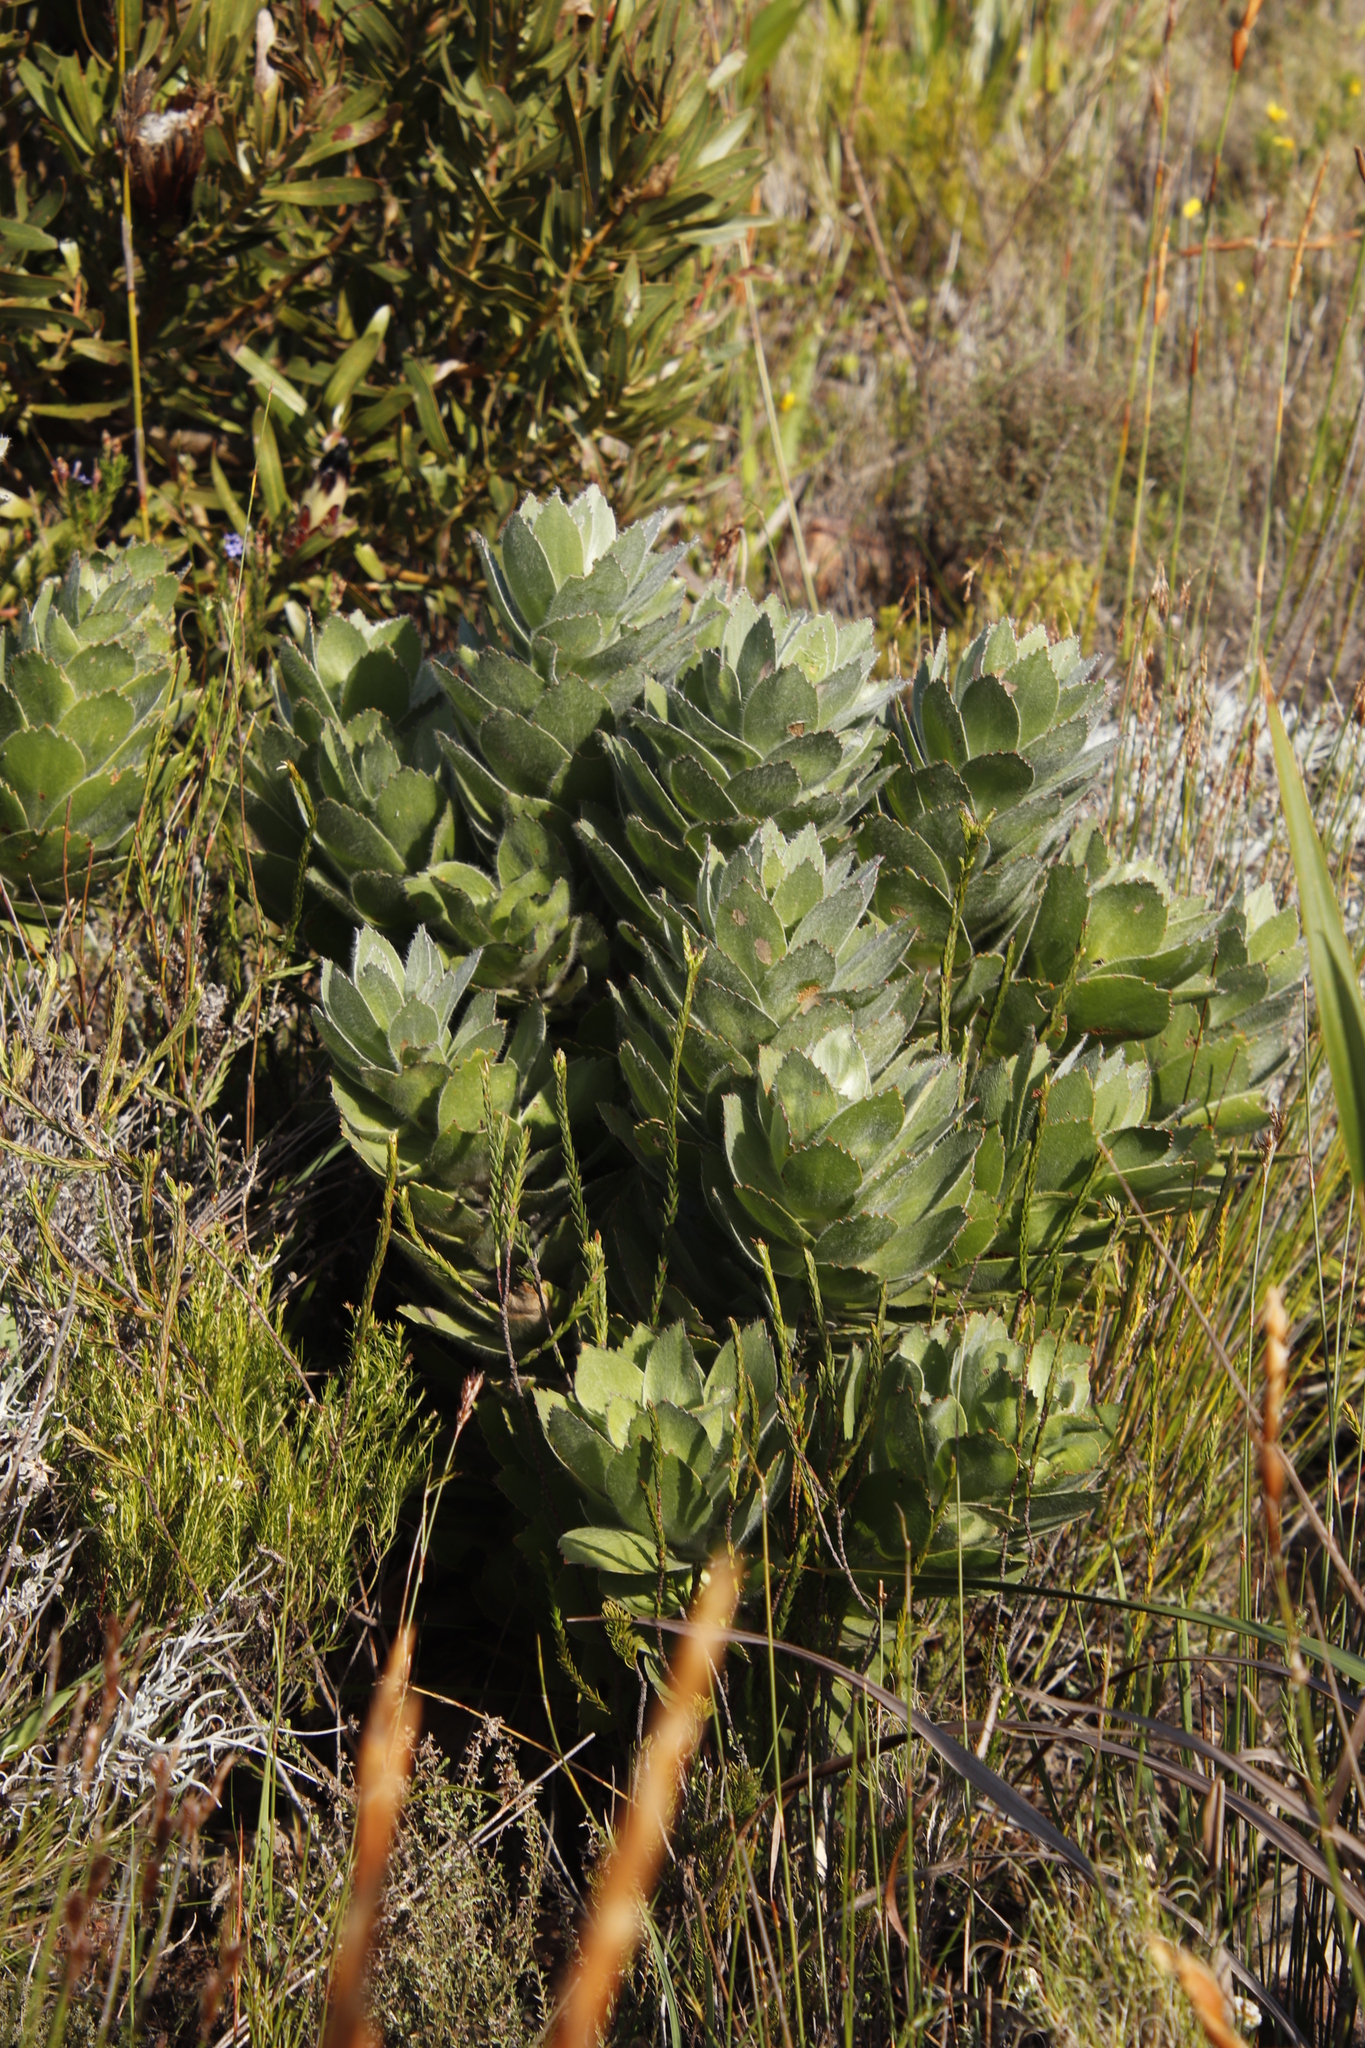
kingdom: Plantae
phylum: Tracheophyta
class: Magnoliopsida
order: Proteales
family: Proteaceae
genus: Leucospermum
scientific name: Leucospermum conocarpodendron
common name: Tree pincushion
